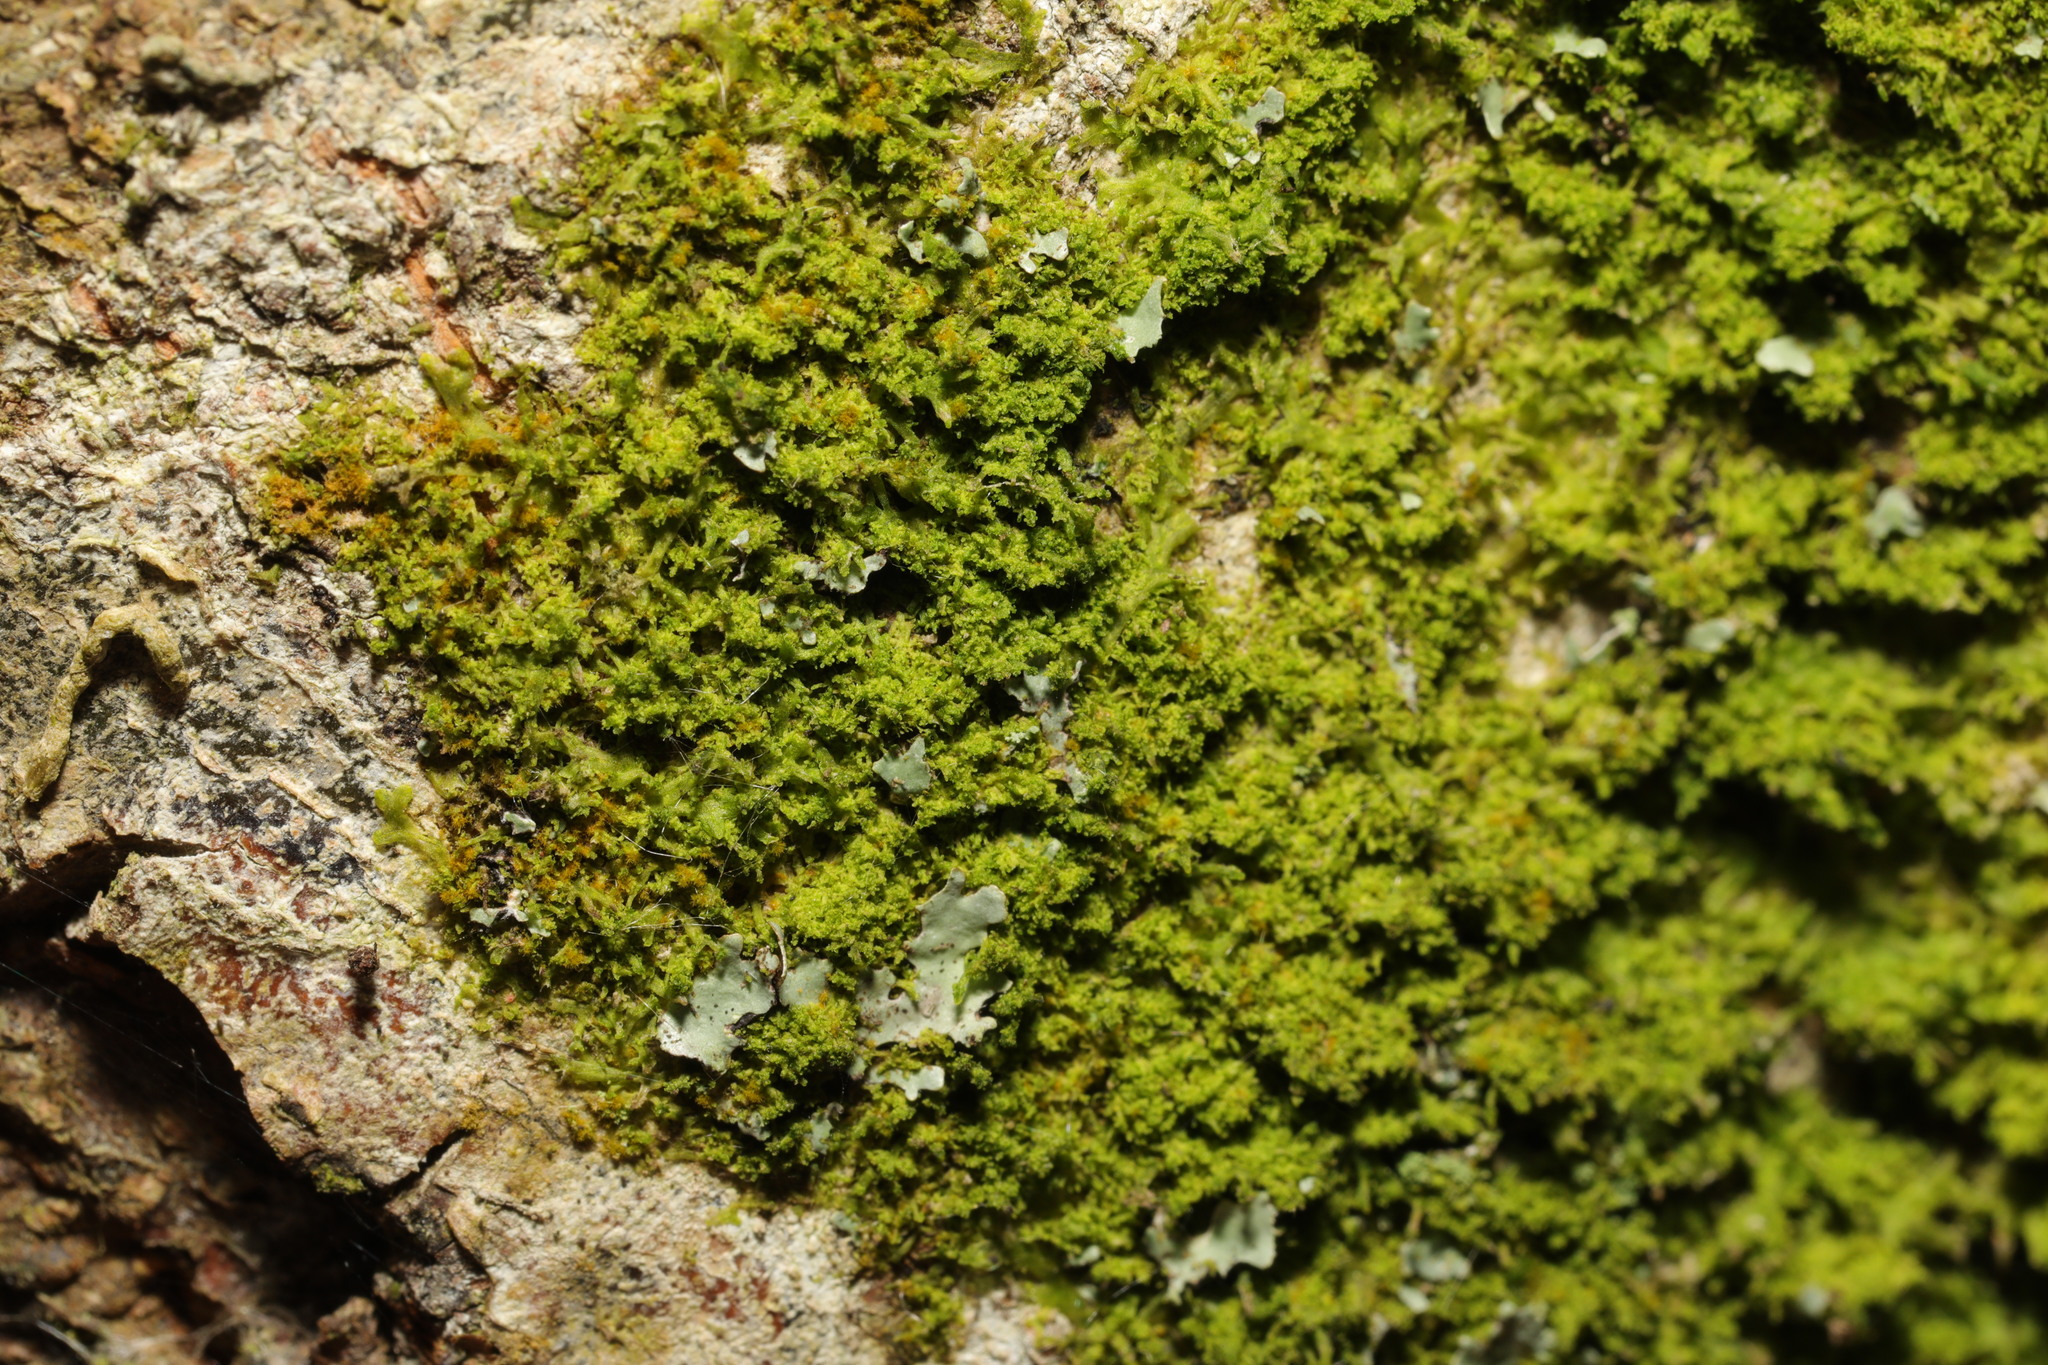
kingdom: Plantae
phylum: Marchantiophyta
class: Jungermanniopsida
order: Metzgeriales
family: Metzgeriaceae
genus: Metzgeria
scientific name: Metzgeria violacea
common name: Blueish veilwort
